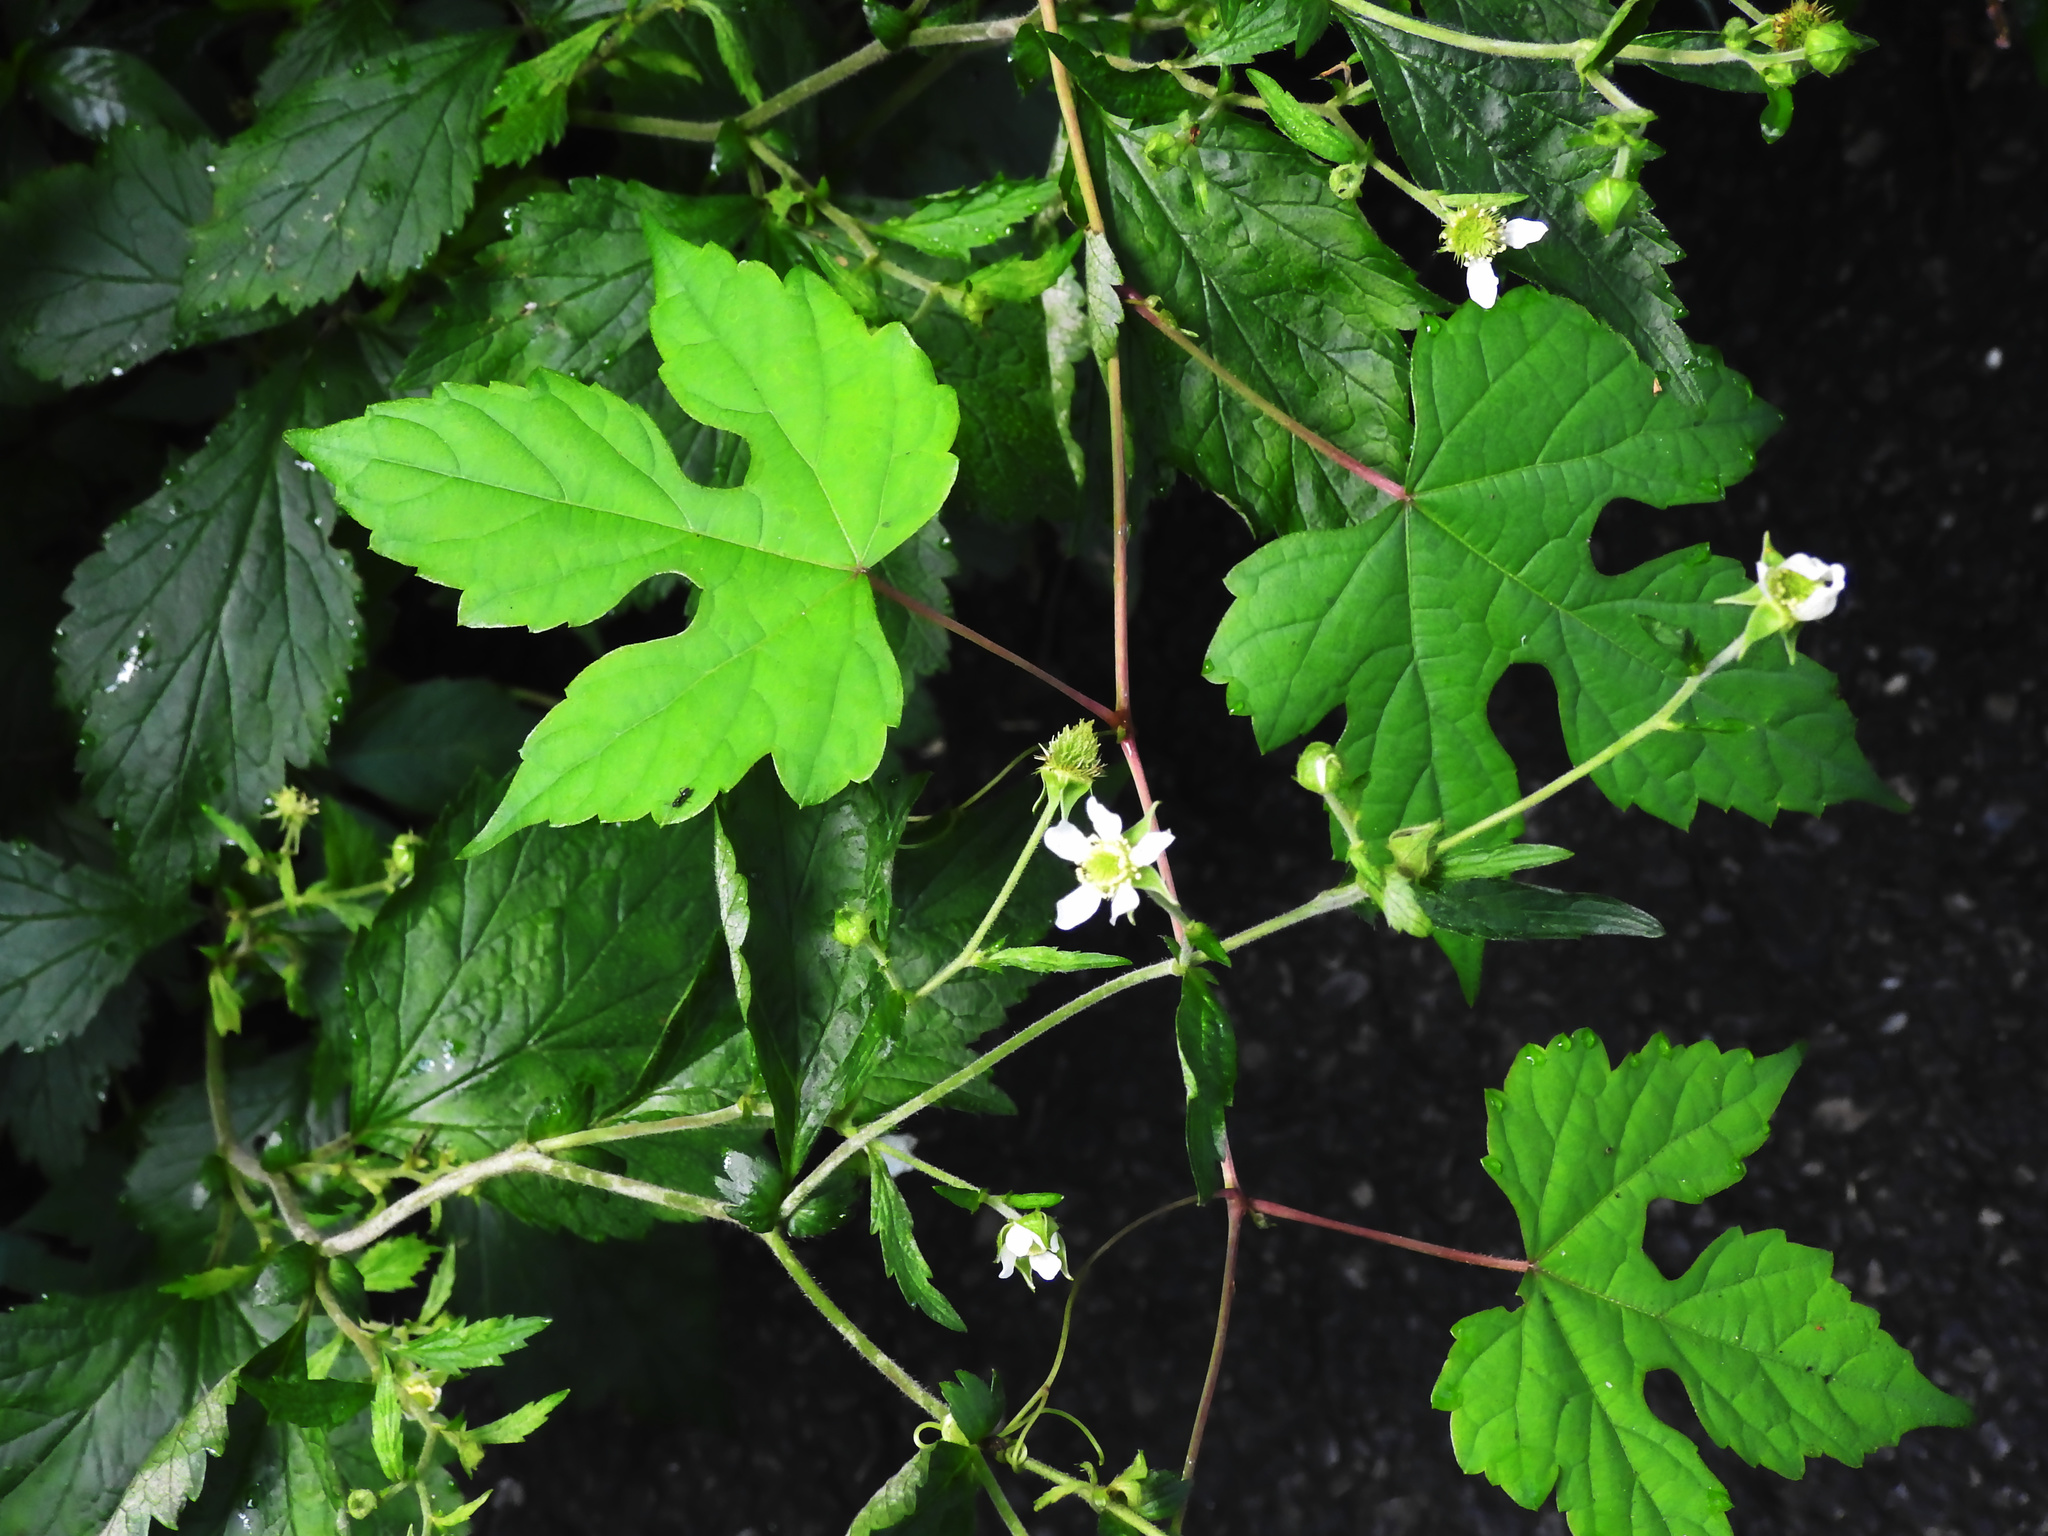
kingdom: Plantae
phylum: Tracheophyta
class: Magnoliopsida
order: Vitales
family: Vitaceae
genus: Ampelopsis
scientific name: Ampelopsis glandulosa
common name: Amur peppervine
